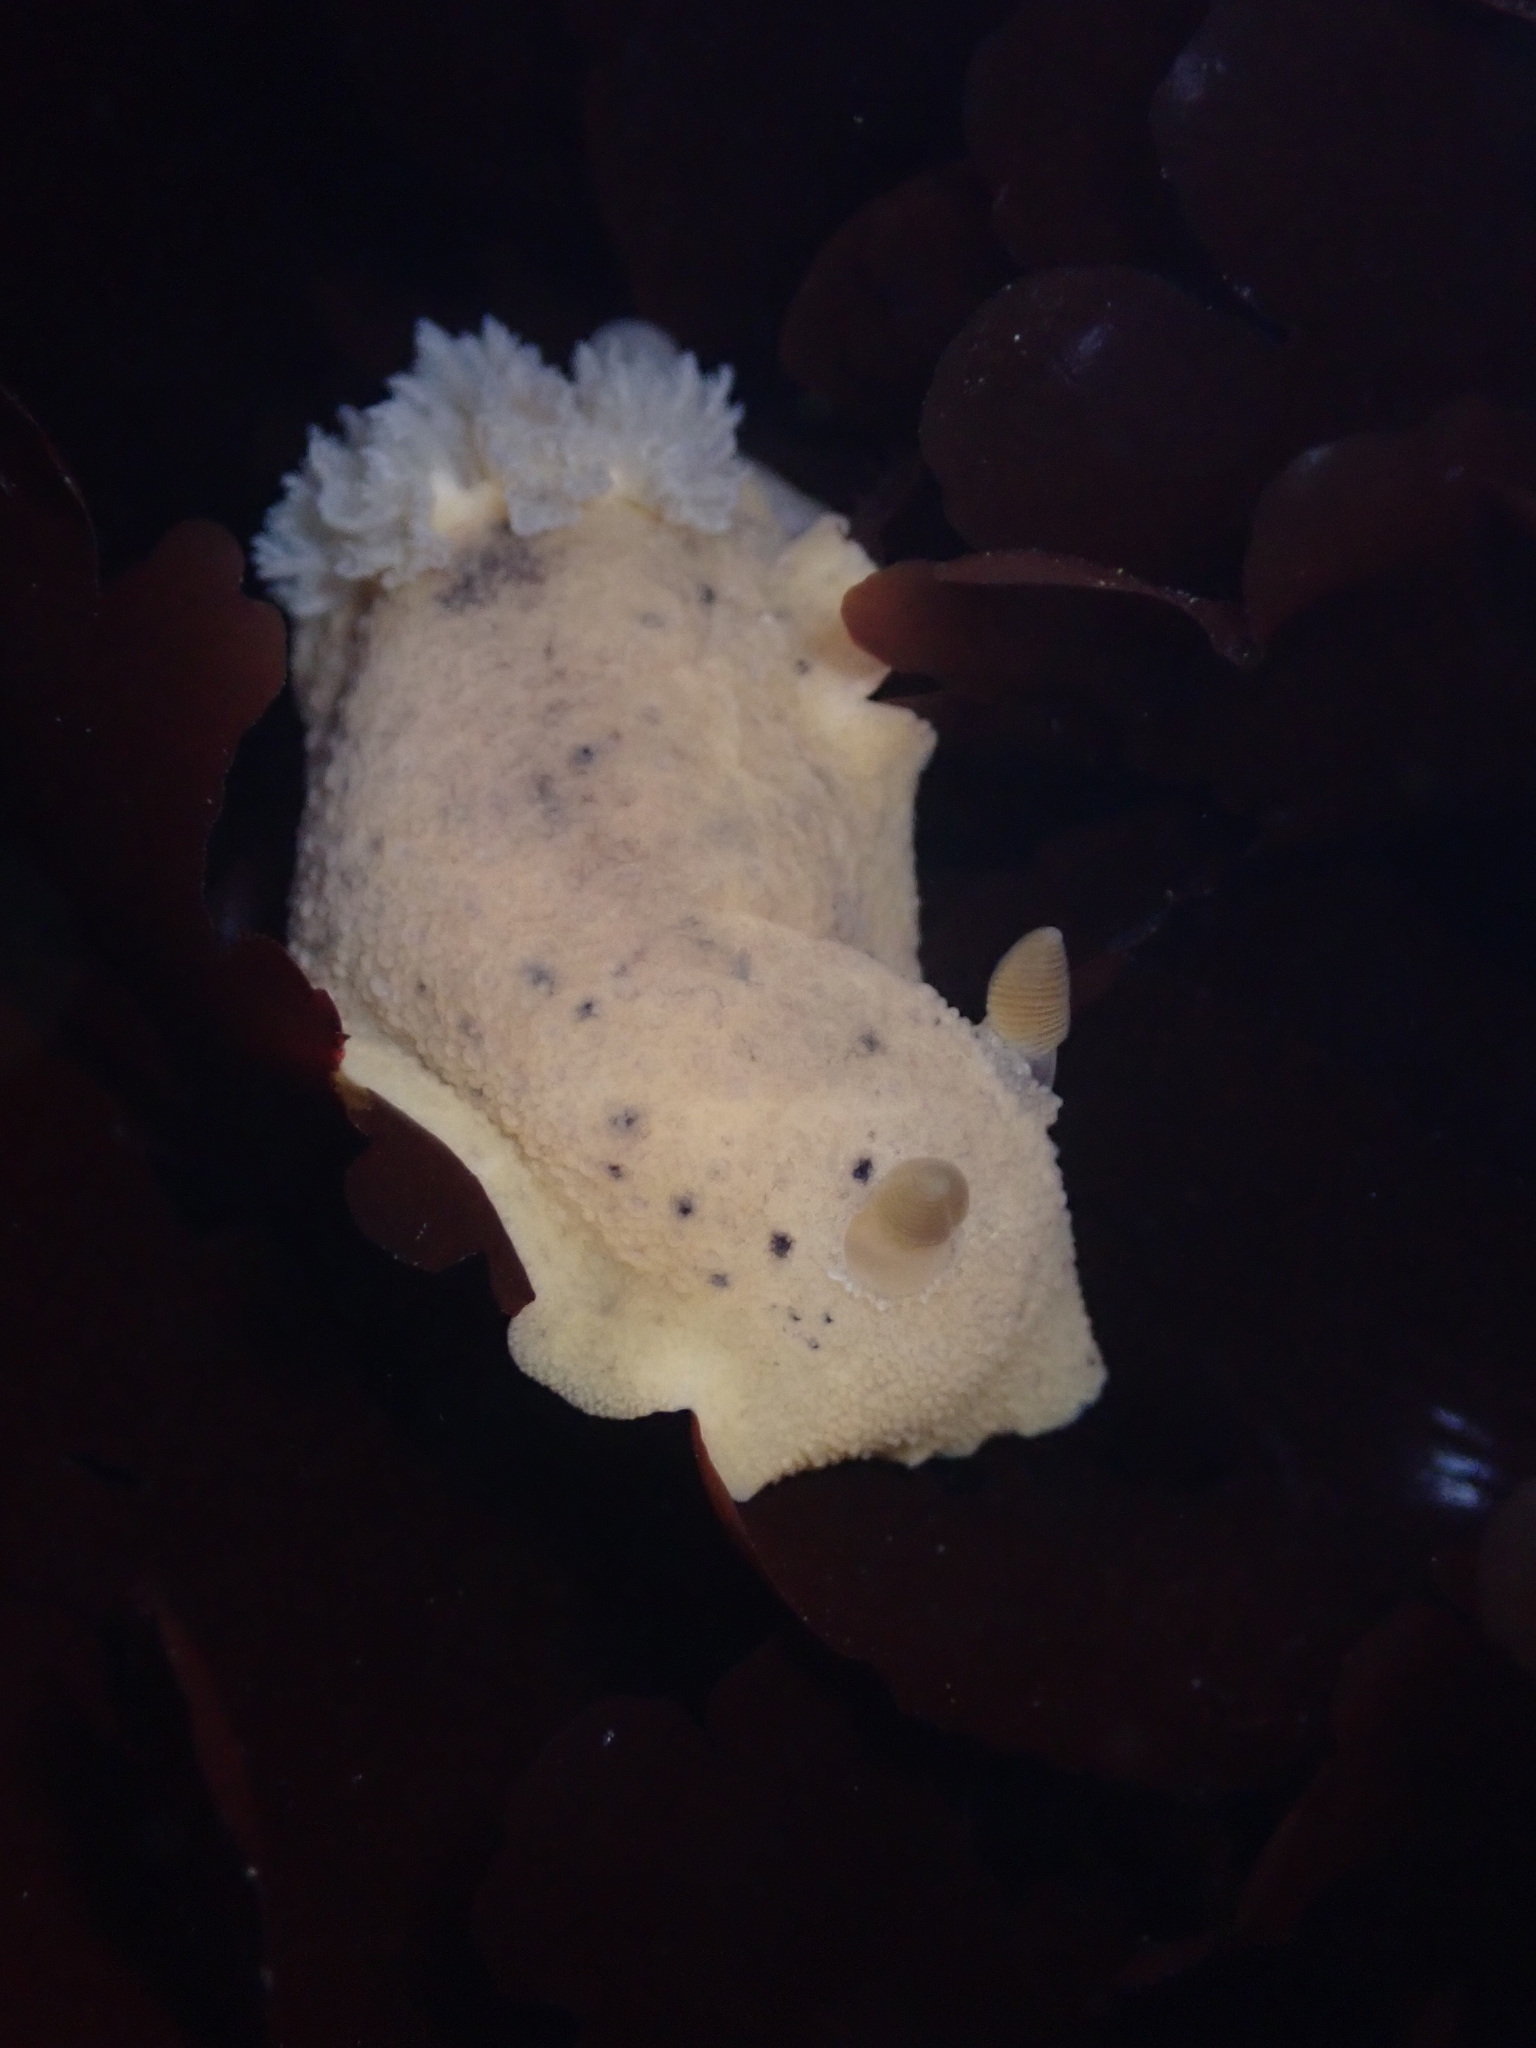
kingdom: Animalia
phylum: Mollusca
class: Gastropoda
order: Nudibranchia
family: Discodorididae
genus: Geitodoris
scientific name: Geitodoris heathi
